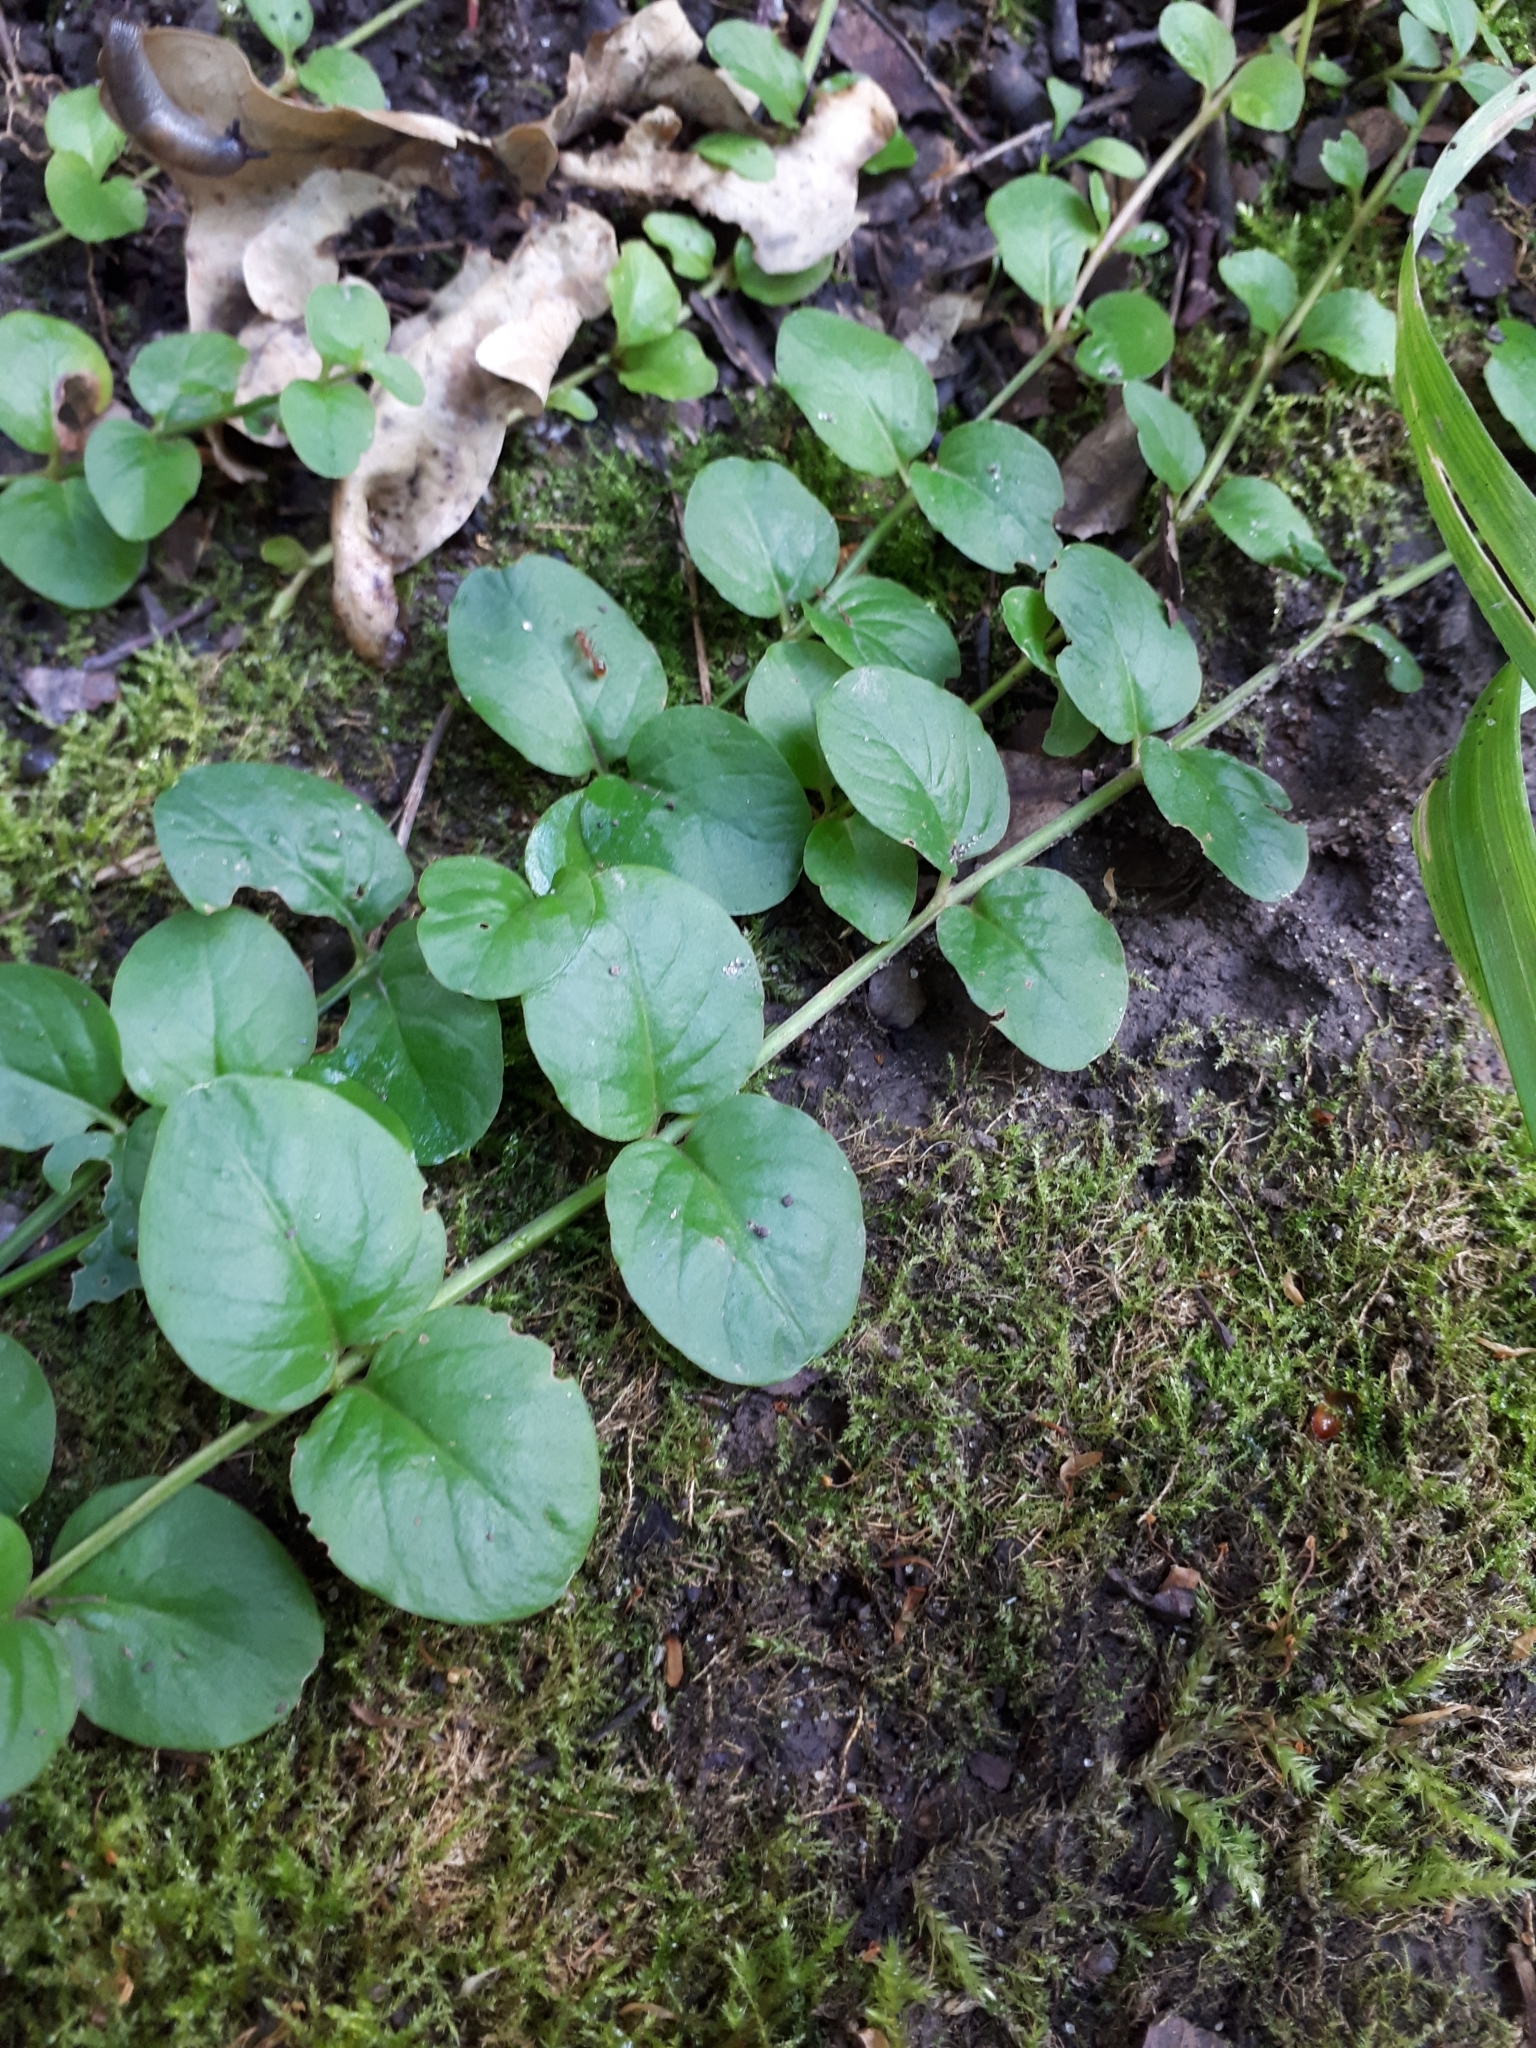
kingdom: Plantae
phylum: Tracheophyta
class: Magnoliopsida
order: Ericales
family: Primulaceae
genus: Lysimachia
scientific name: Lysimachia nummularia
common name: Moneywort
